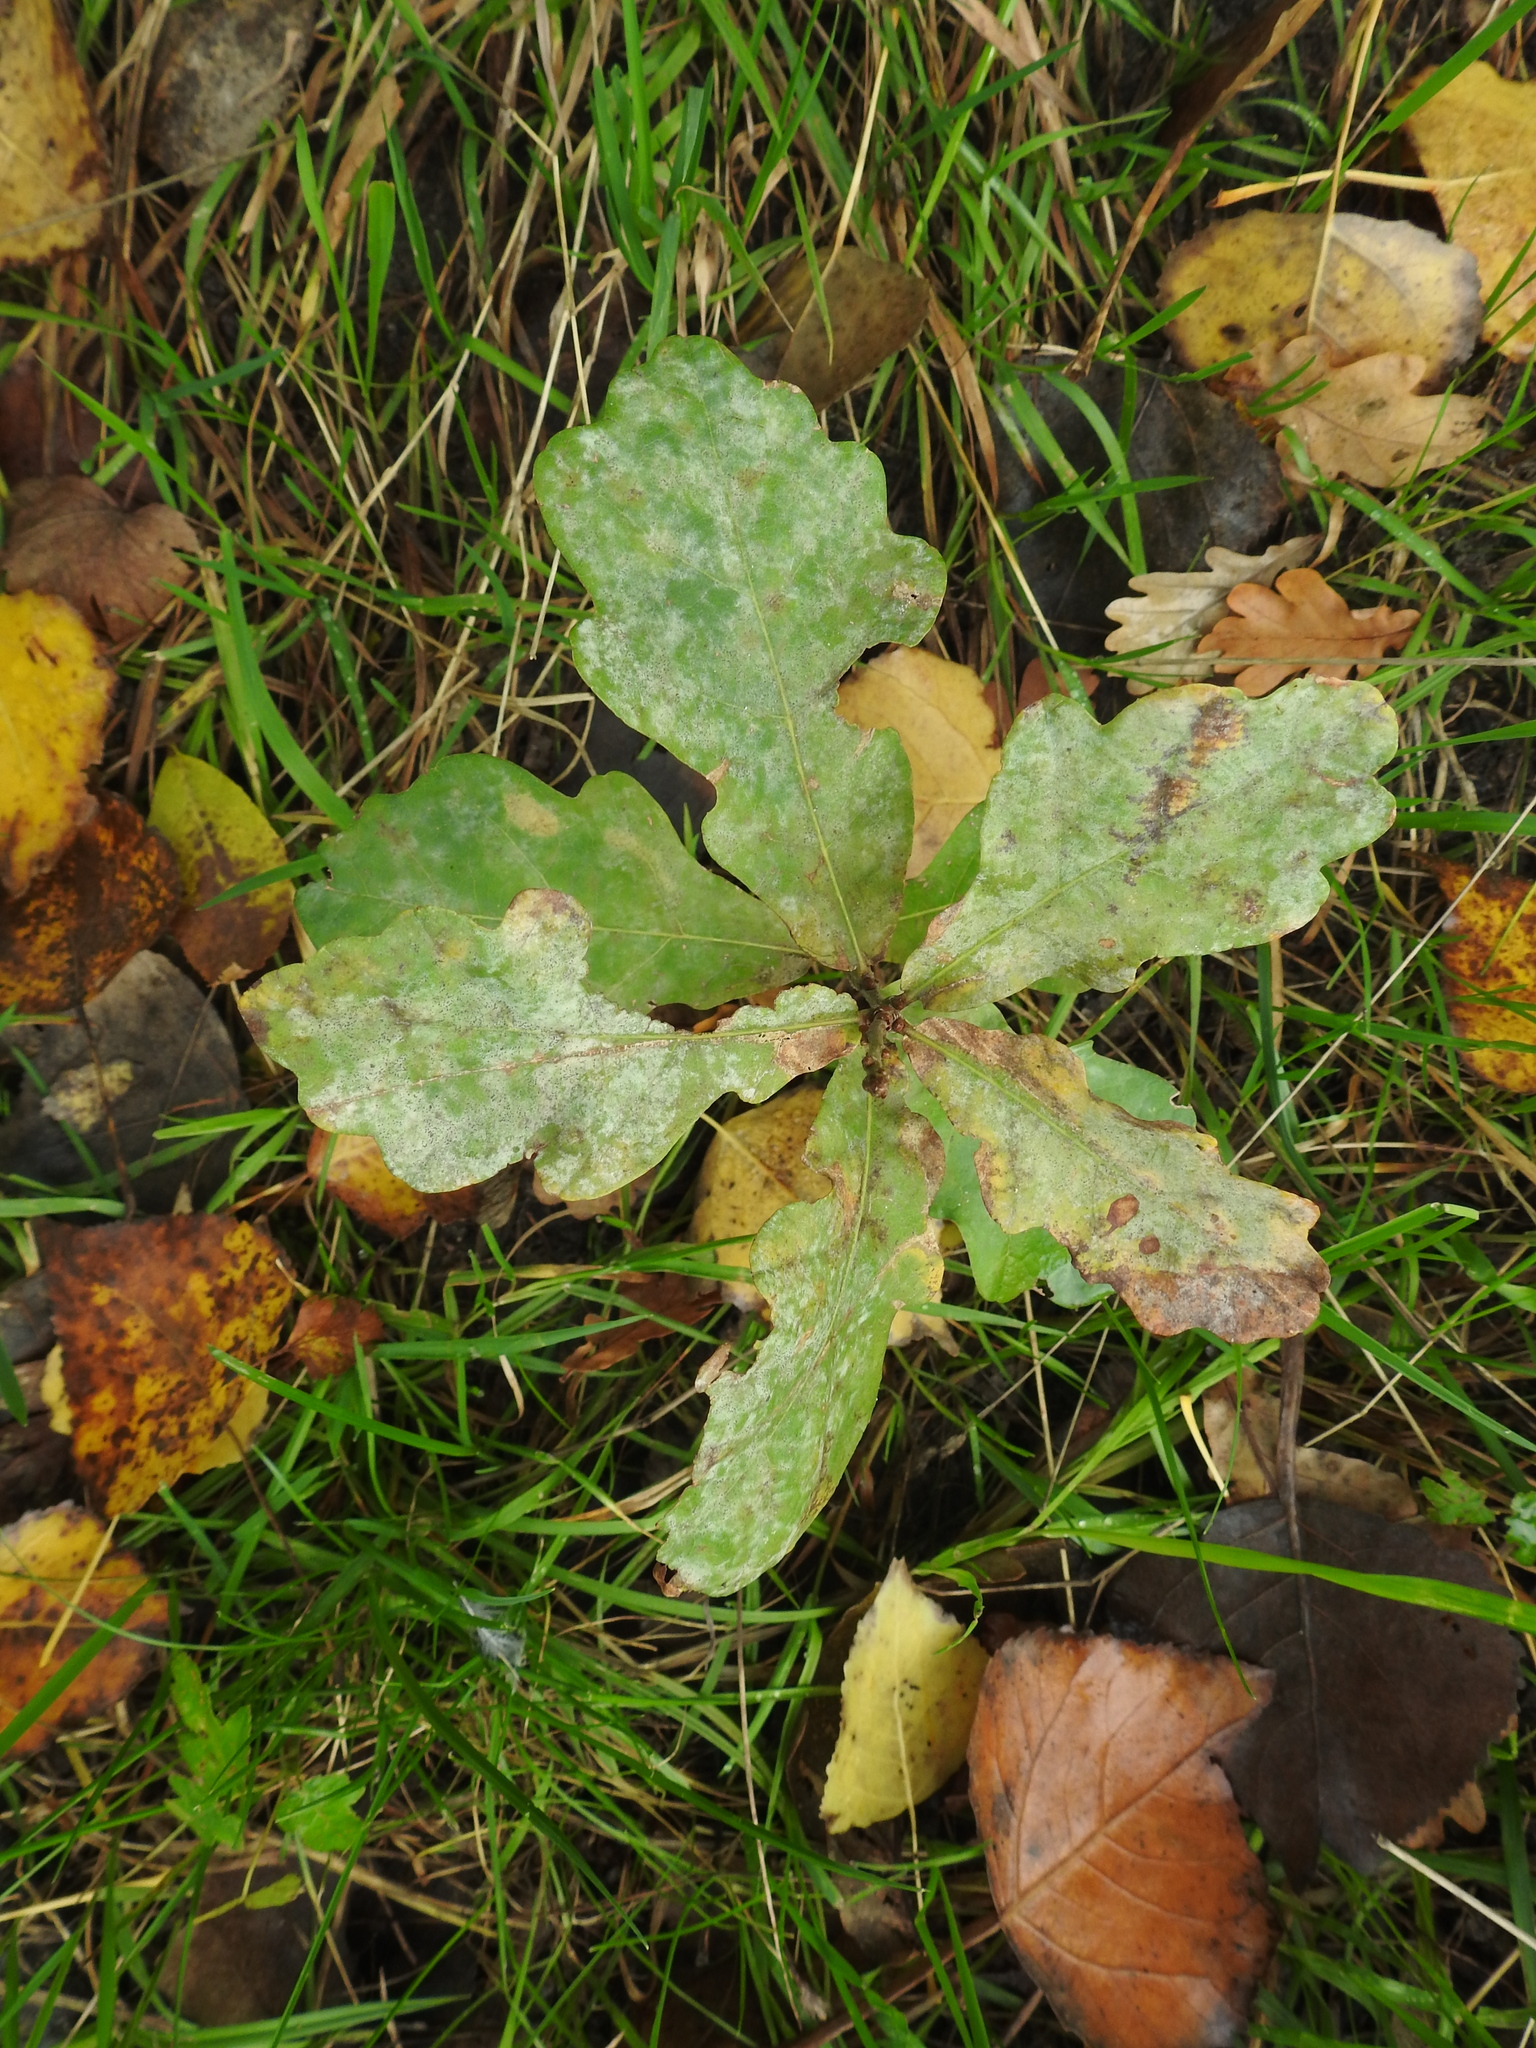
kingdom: Fungi
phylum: Ascomycota
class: Leotiomycetes
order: Helotiales
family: Erysiphaceae
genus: Erysiphe
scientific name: Erysiphe
